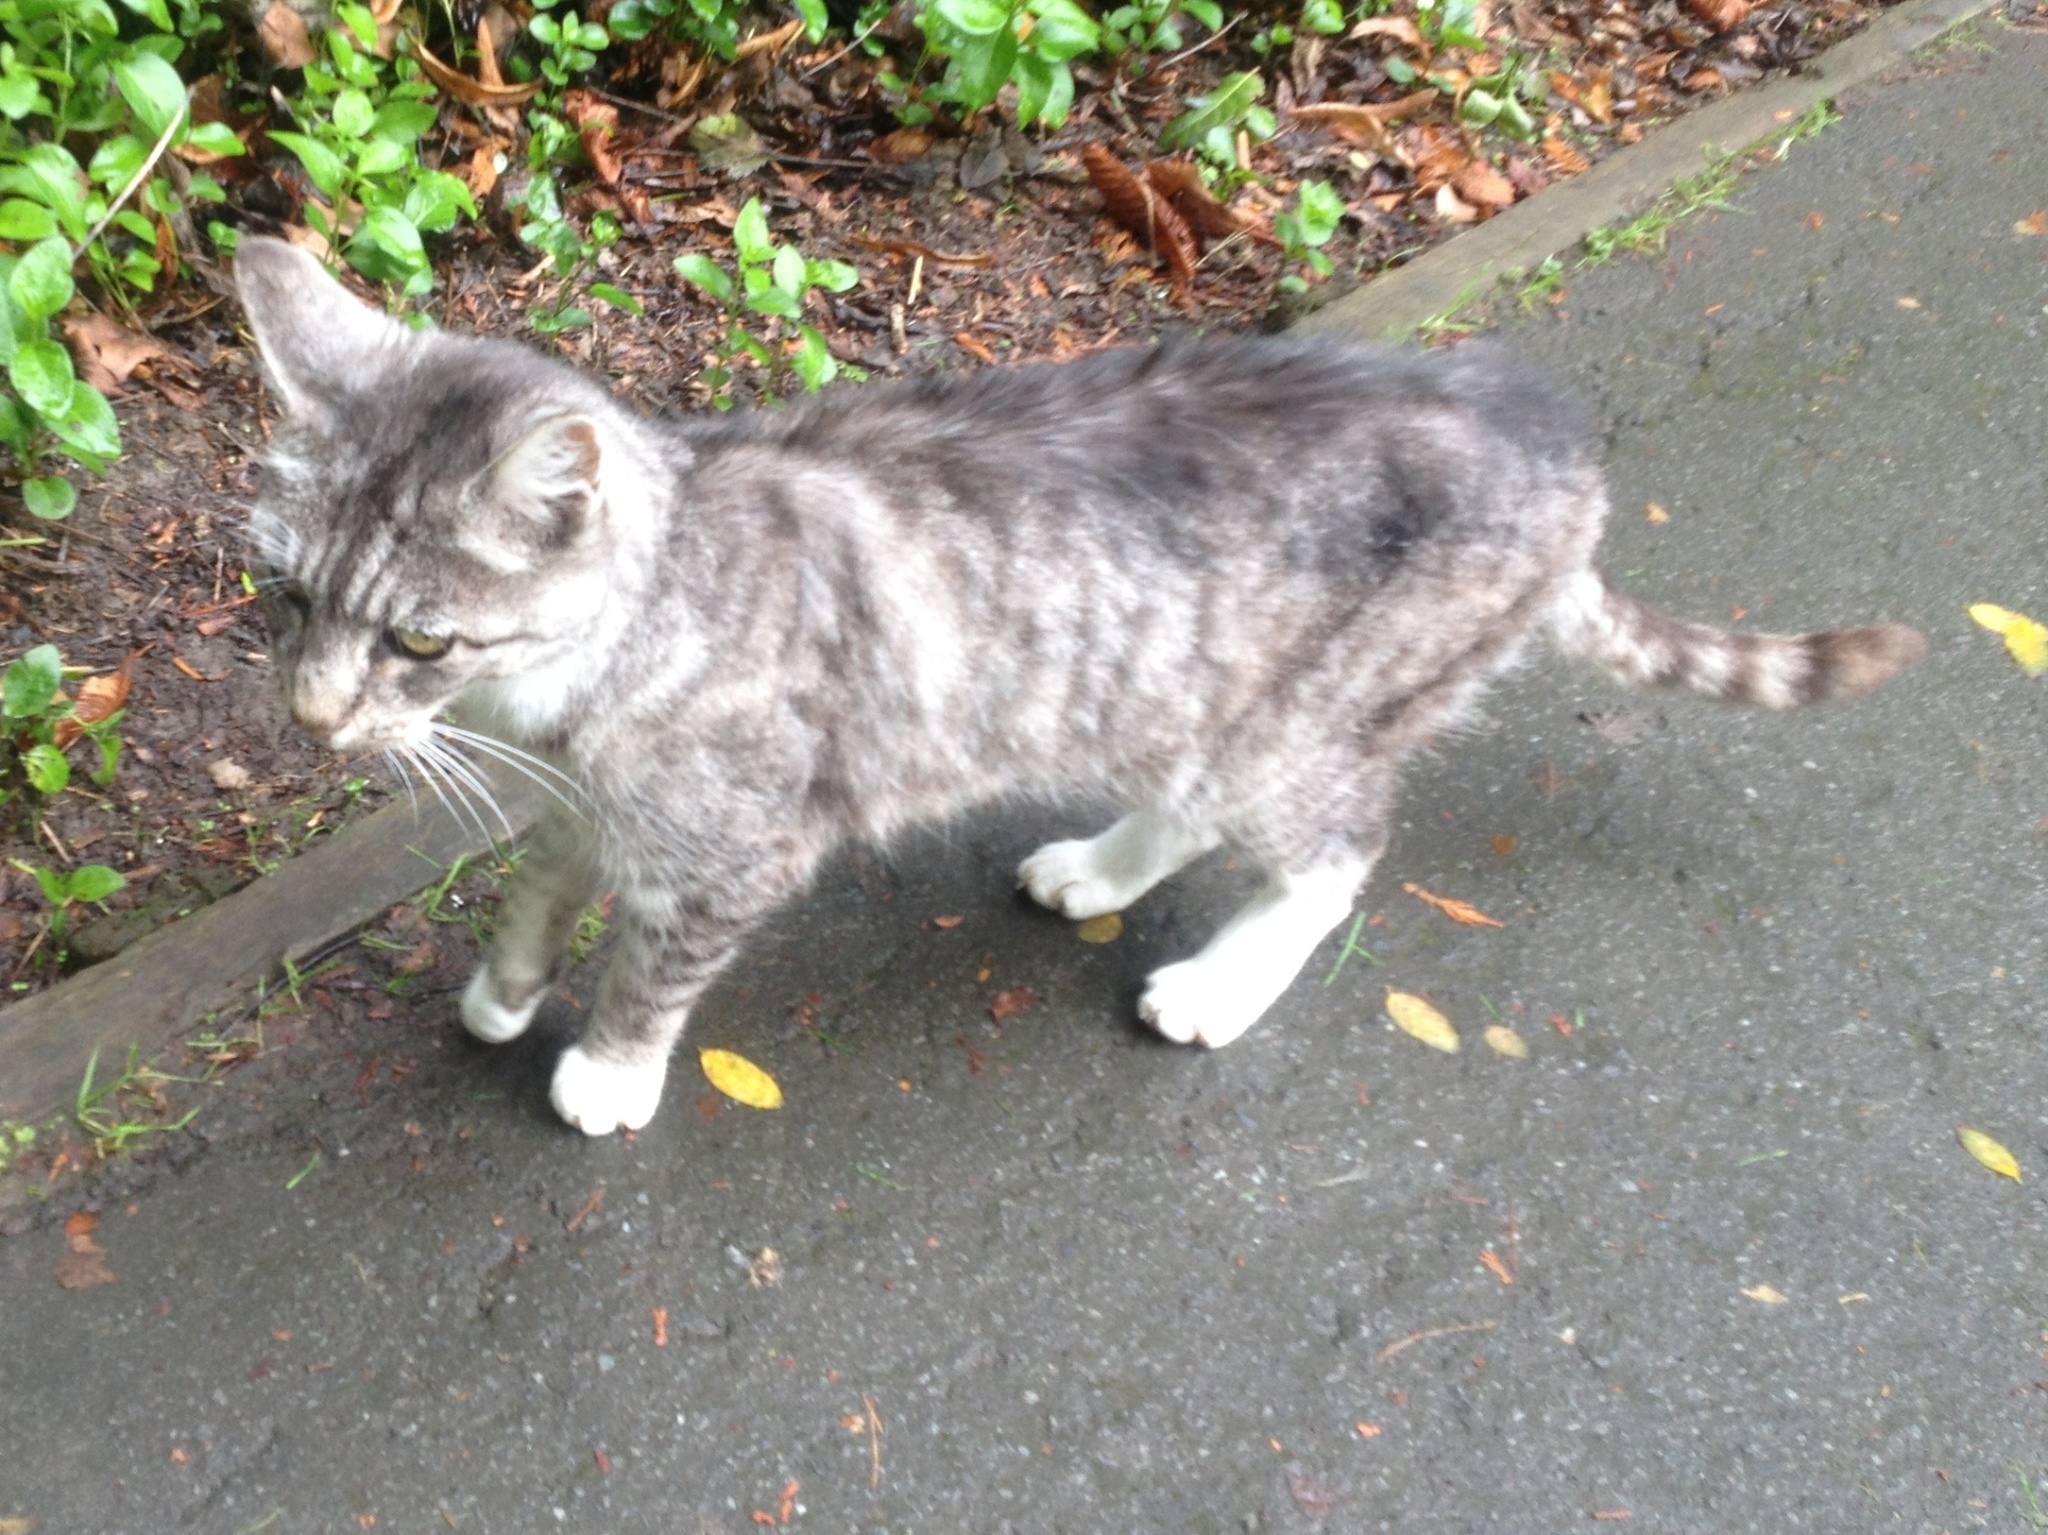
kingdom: Animalia
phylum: Chordata
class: Mammalia
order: Carnivora
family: Felidae
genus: Felis
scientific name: Felis catus
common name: Domestic cat
